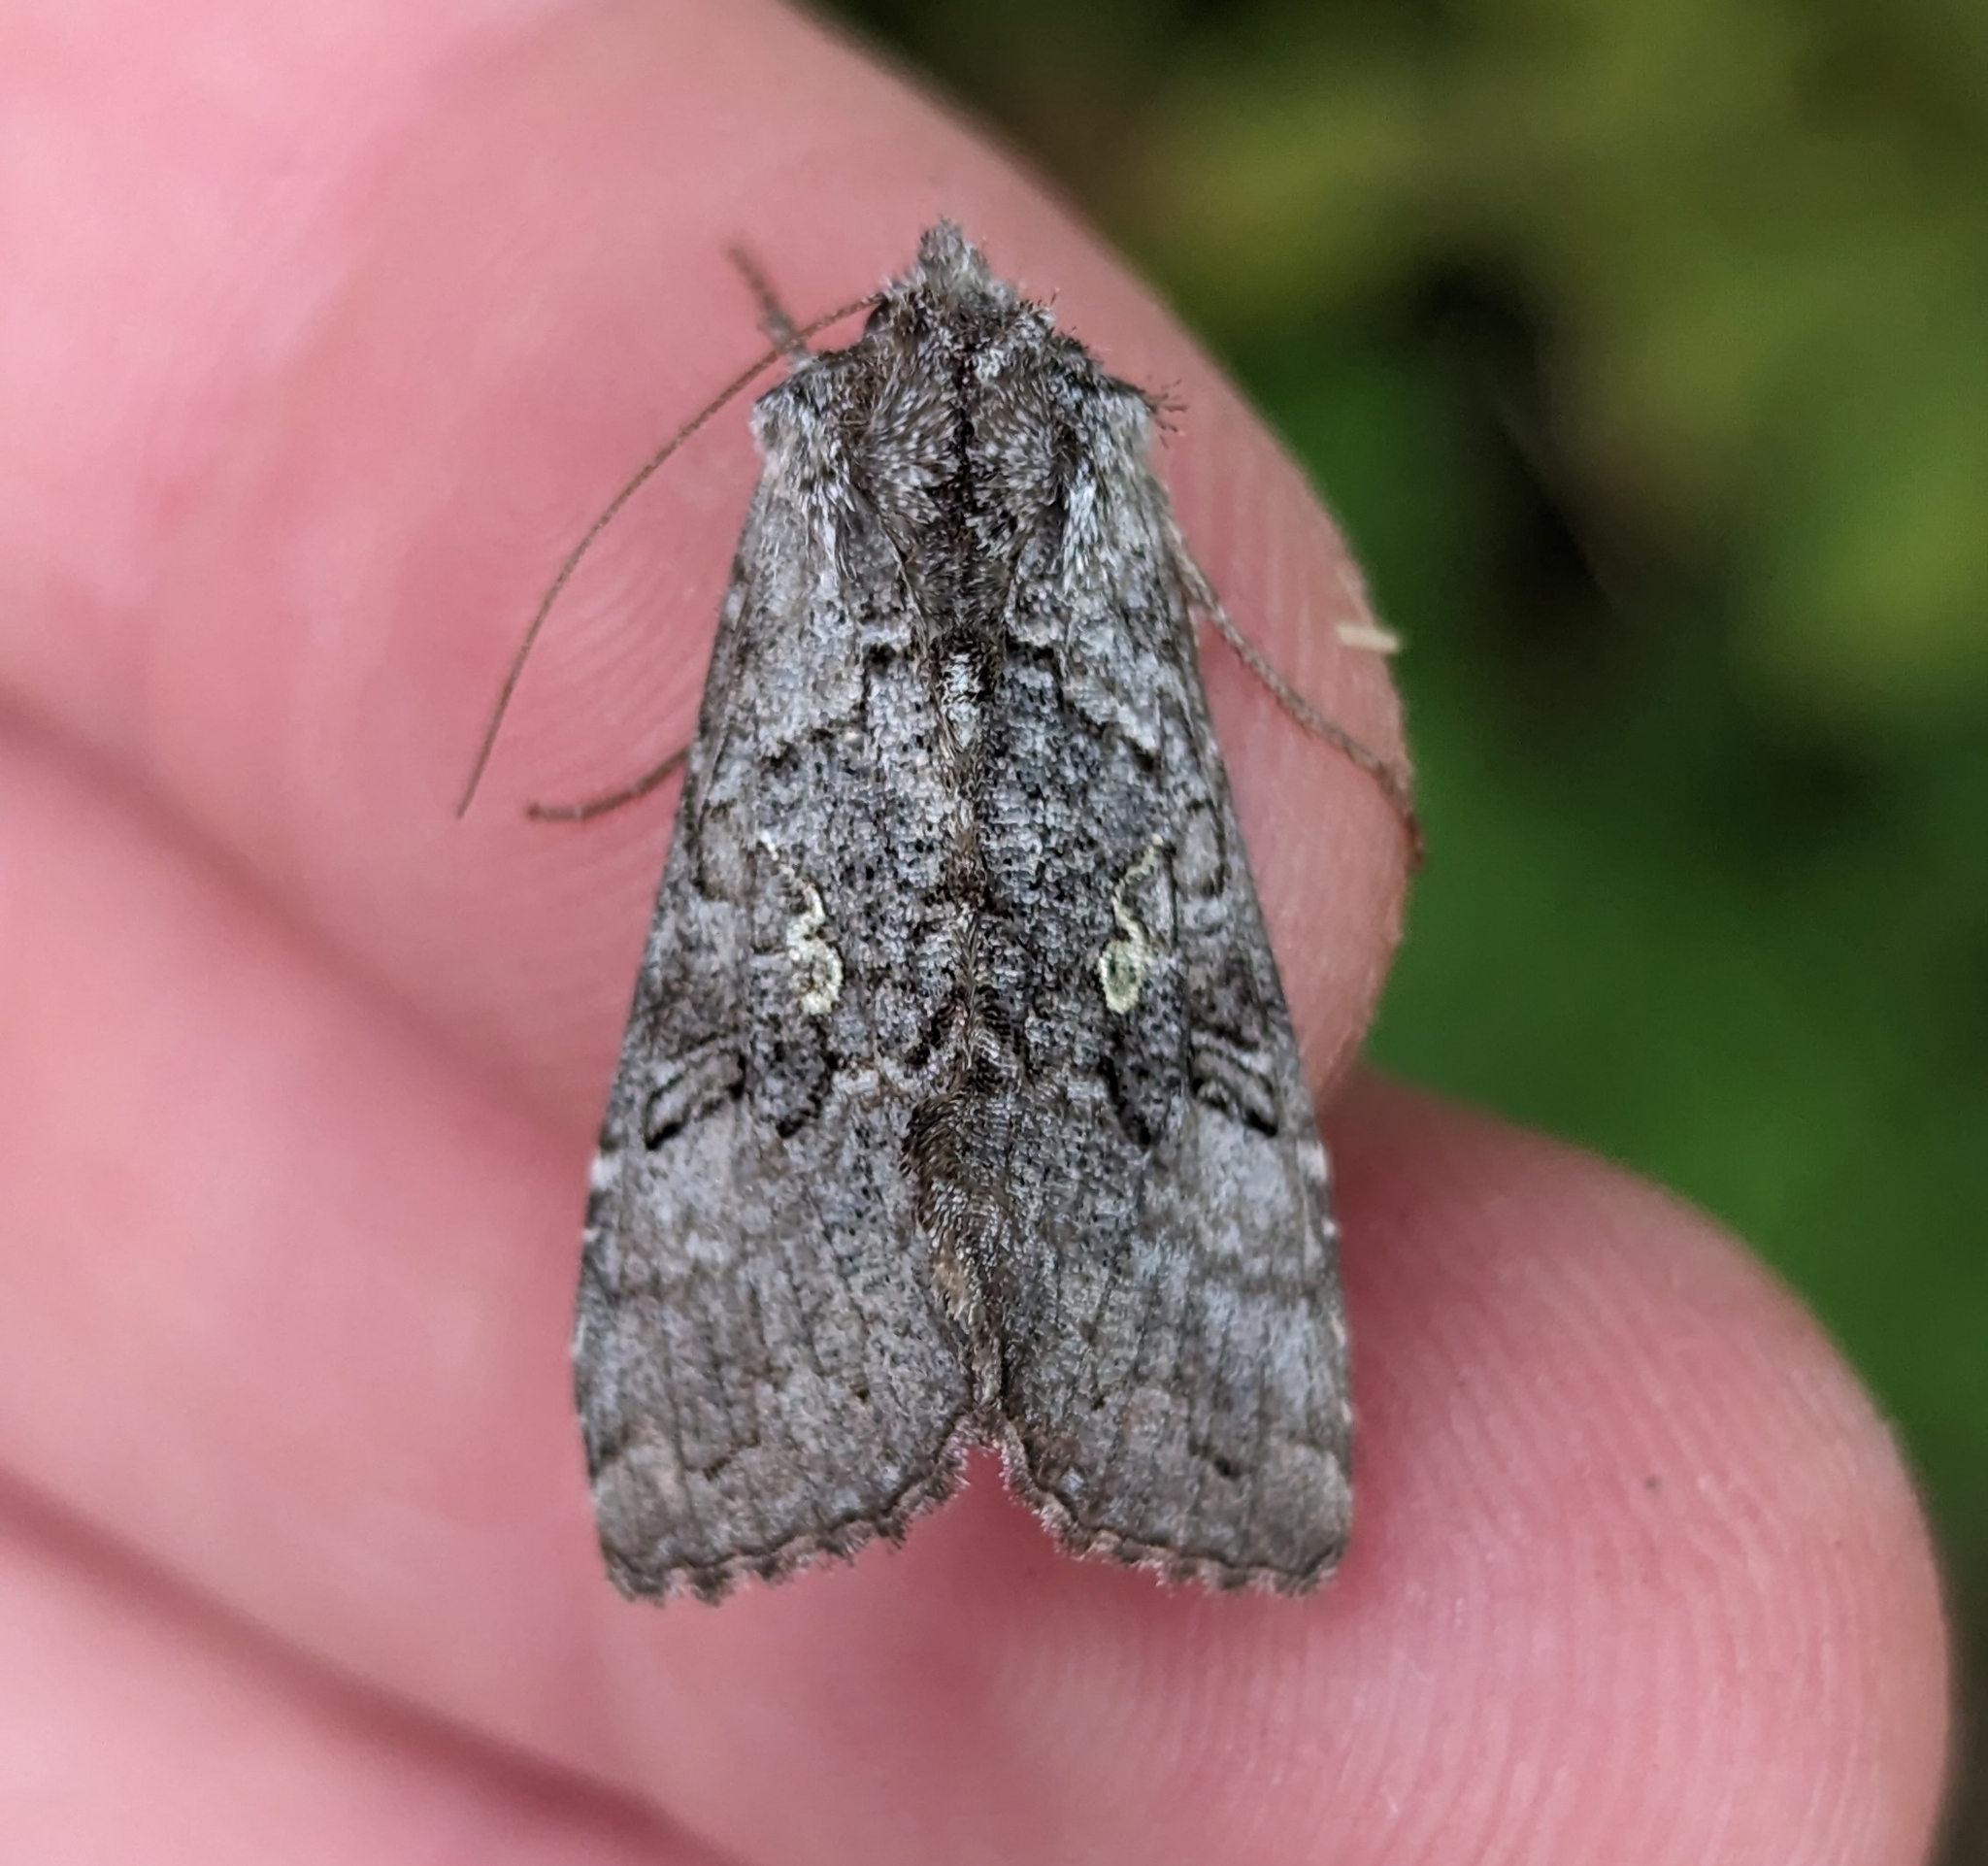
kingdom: Animalia
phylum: Arthropoda
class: Insecta
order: Lepidoptera
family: Noctuidae
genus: Syngrapha
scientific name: Syngrapha viridisigma
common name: Spruce false looper moth
